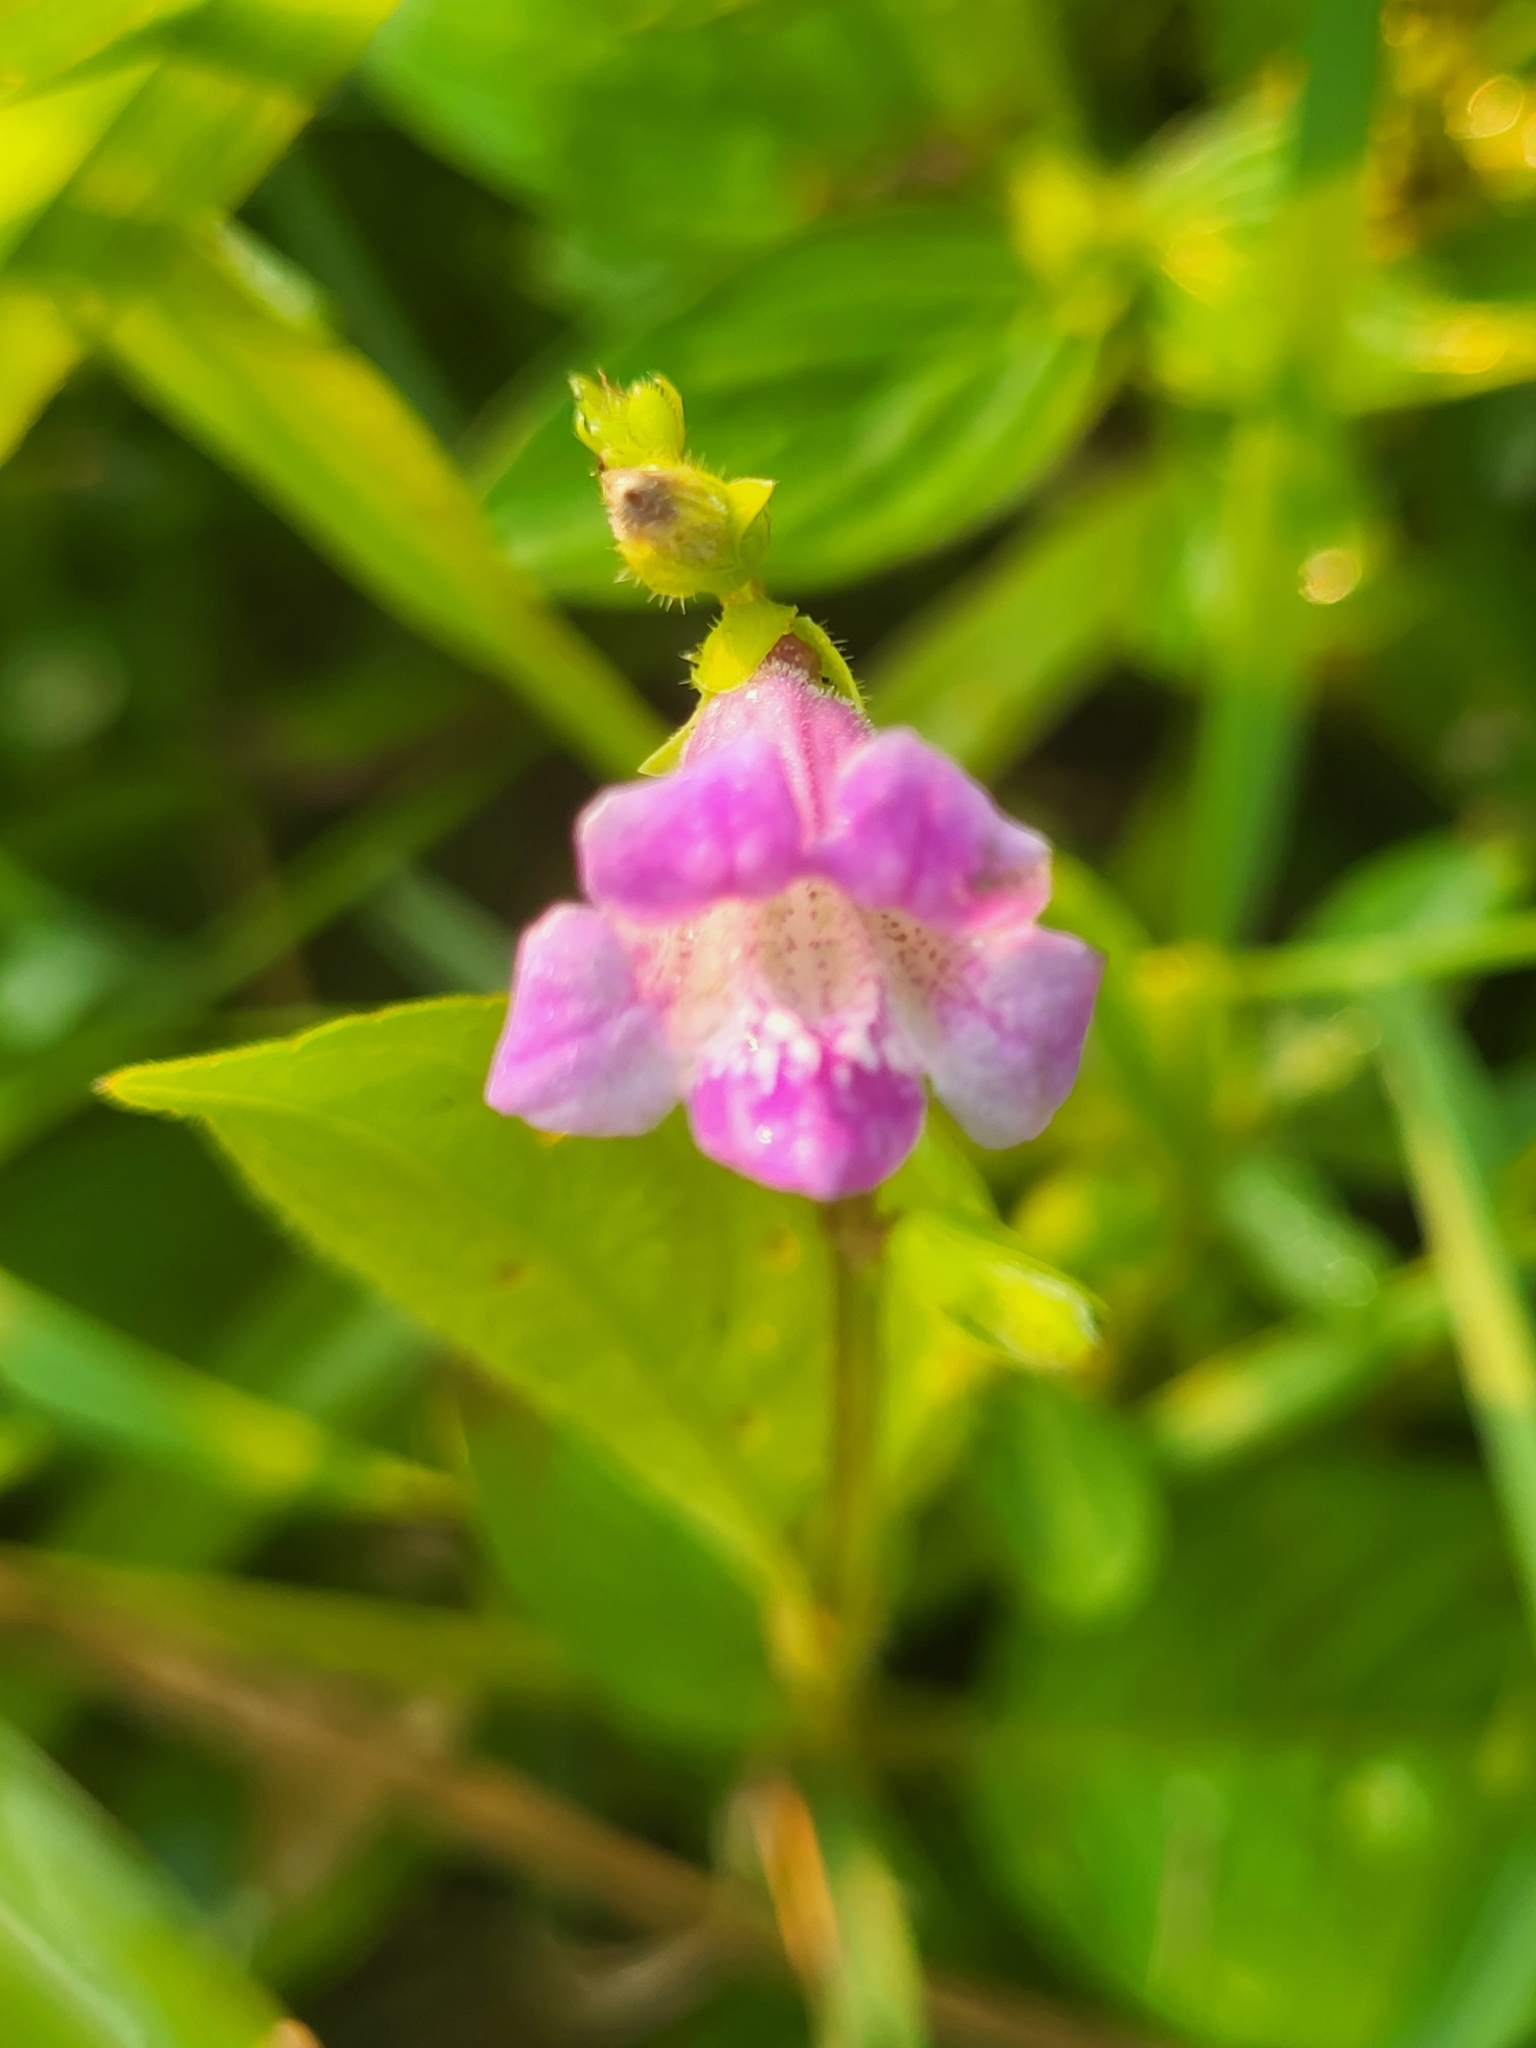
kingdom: Plantae
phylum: Tracheophyta
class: Magnoliopsida
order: Lamiales
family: Acanthaceae
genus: Asystasia
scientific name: Asystasia dalzelliana
